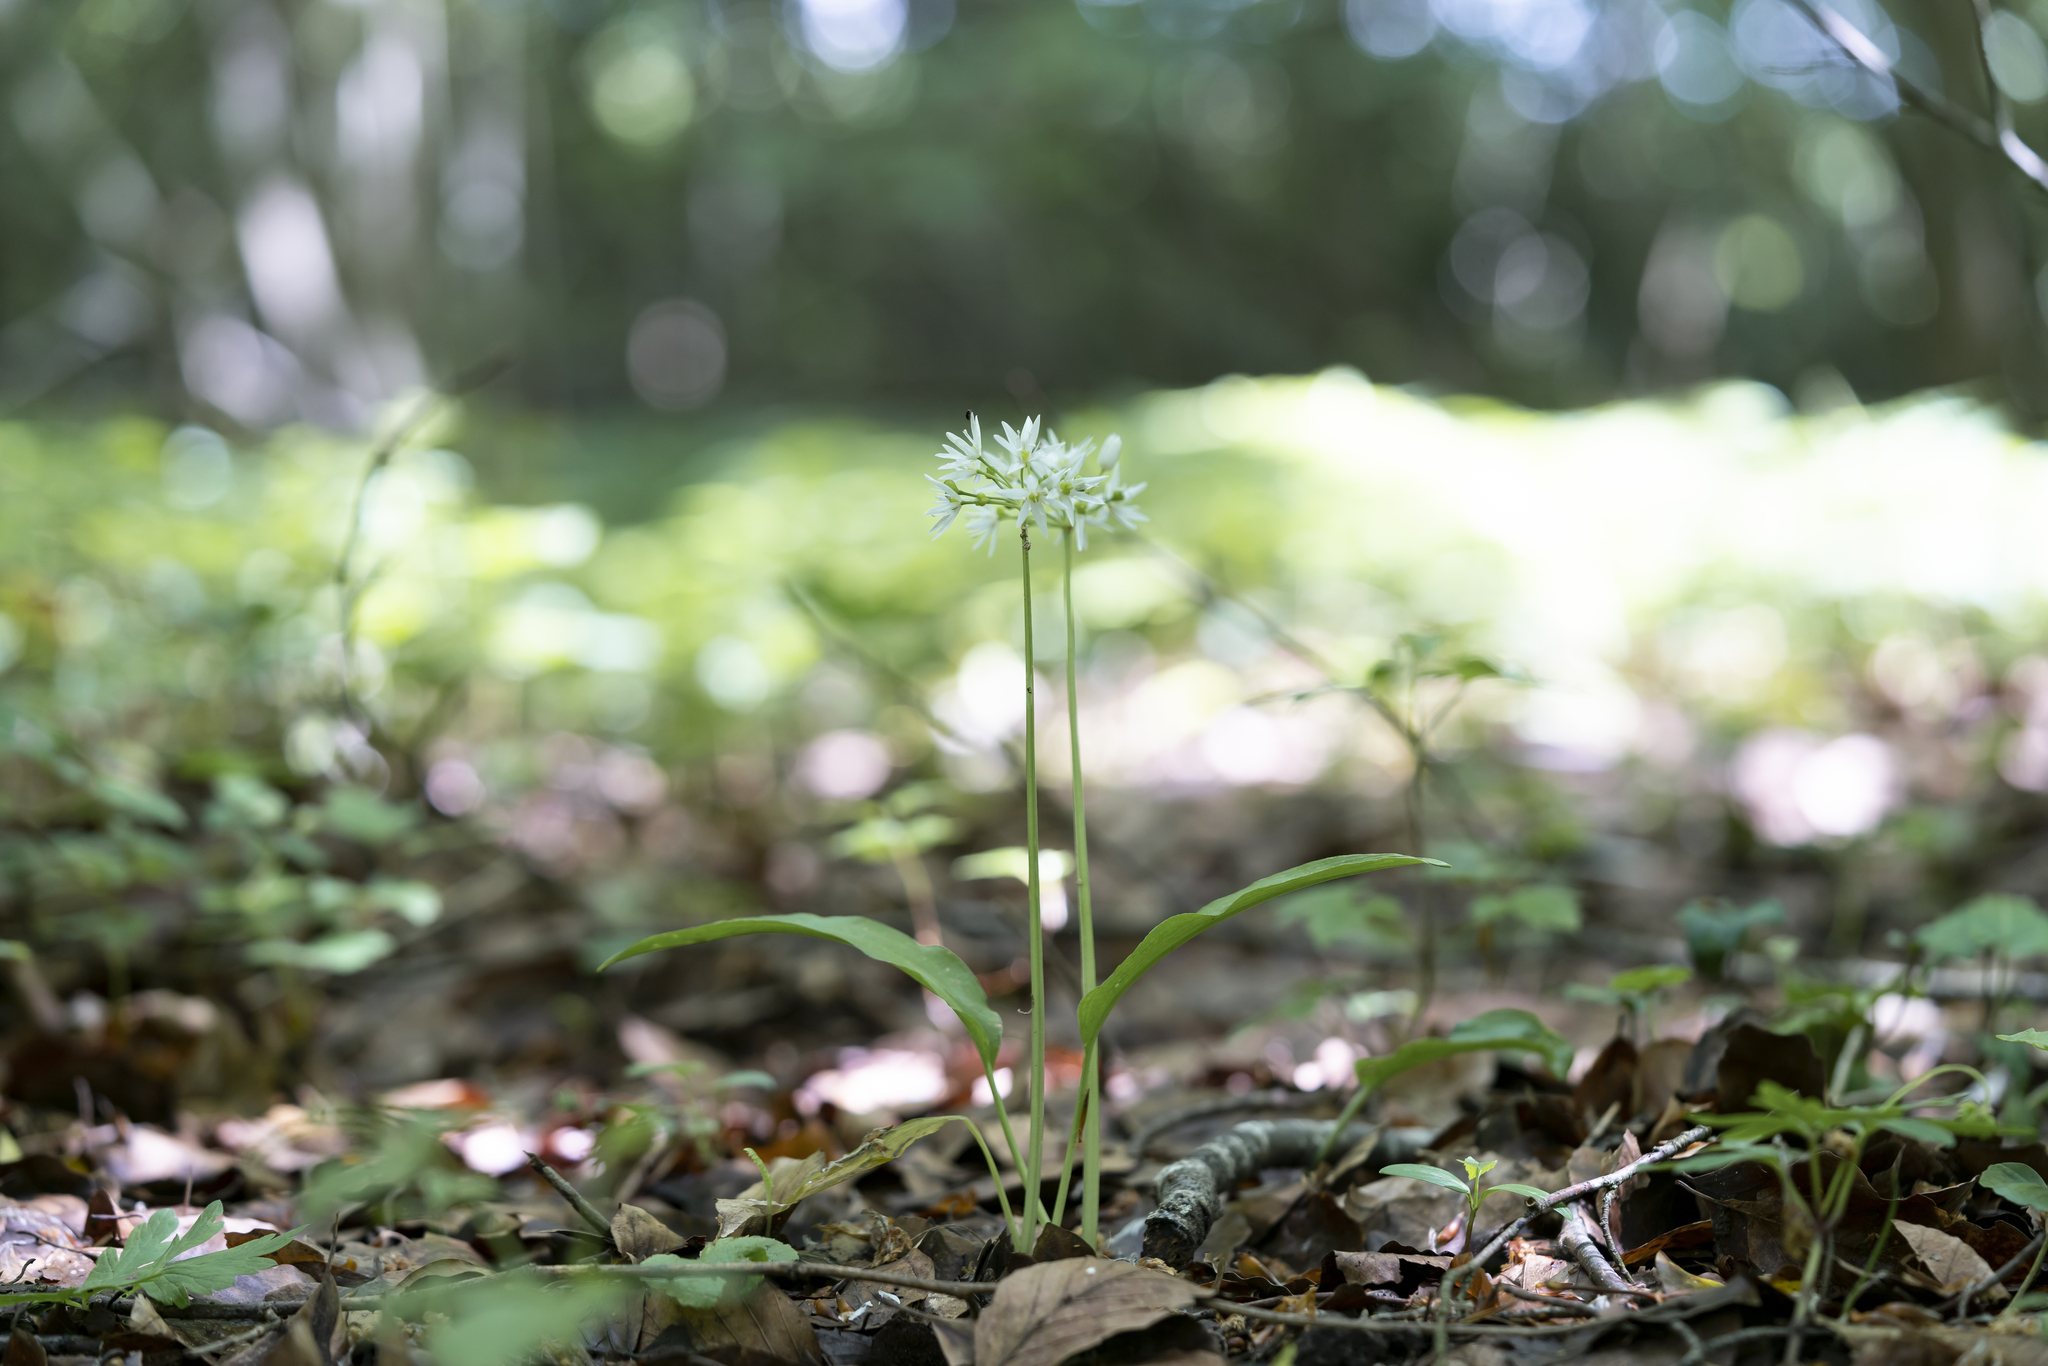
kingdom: Plantae
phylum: Tracheophyta
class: Liliopsida
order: Asparagales
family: Amaryllidaceae
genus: Allium
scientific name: Allium ursinum
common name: Ramsons
